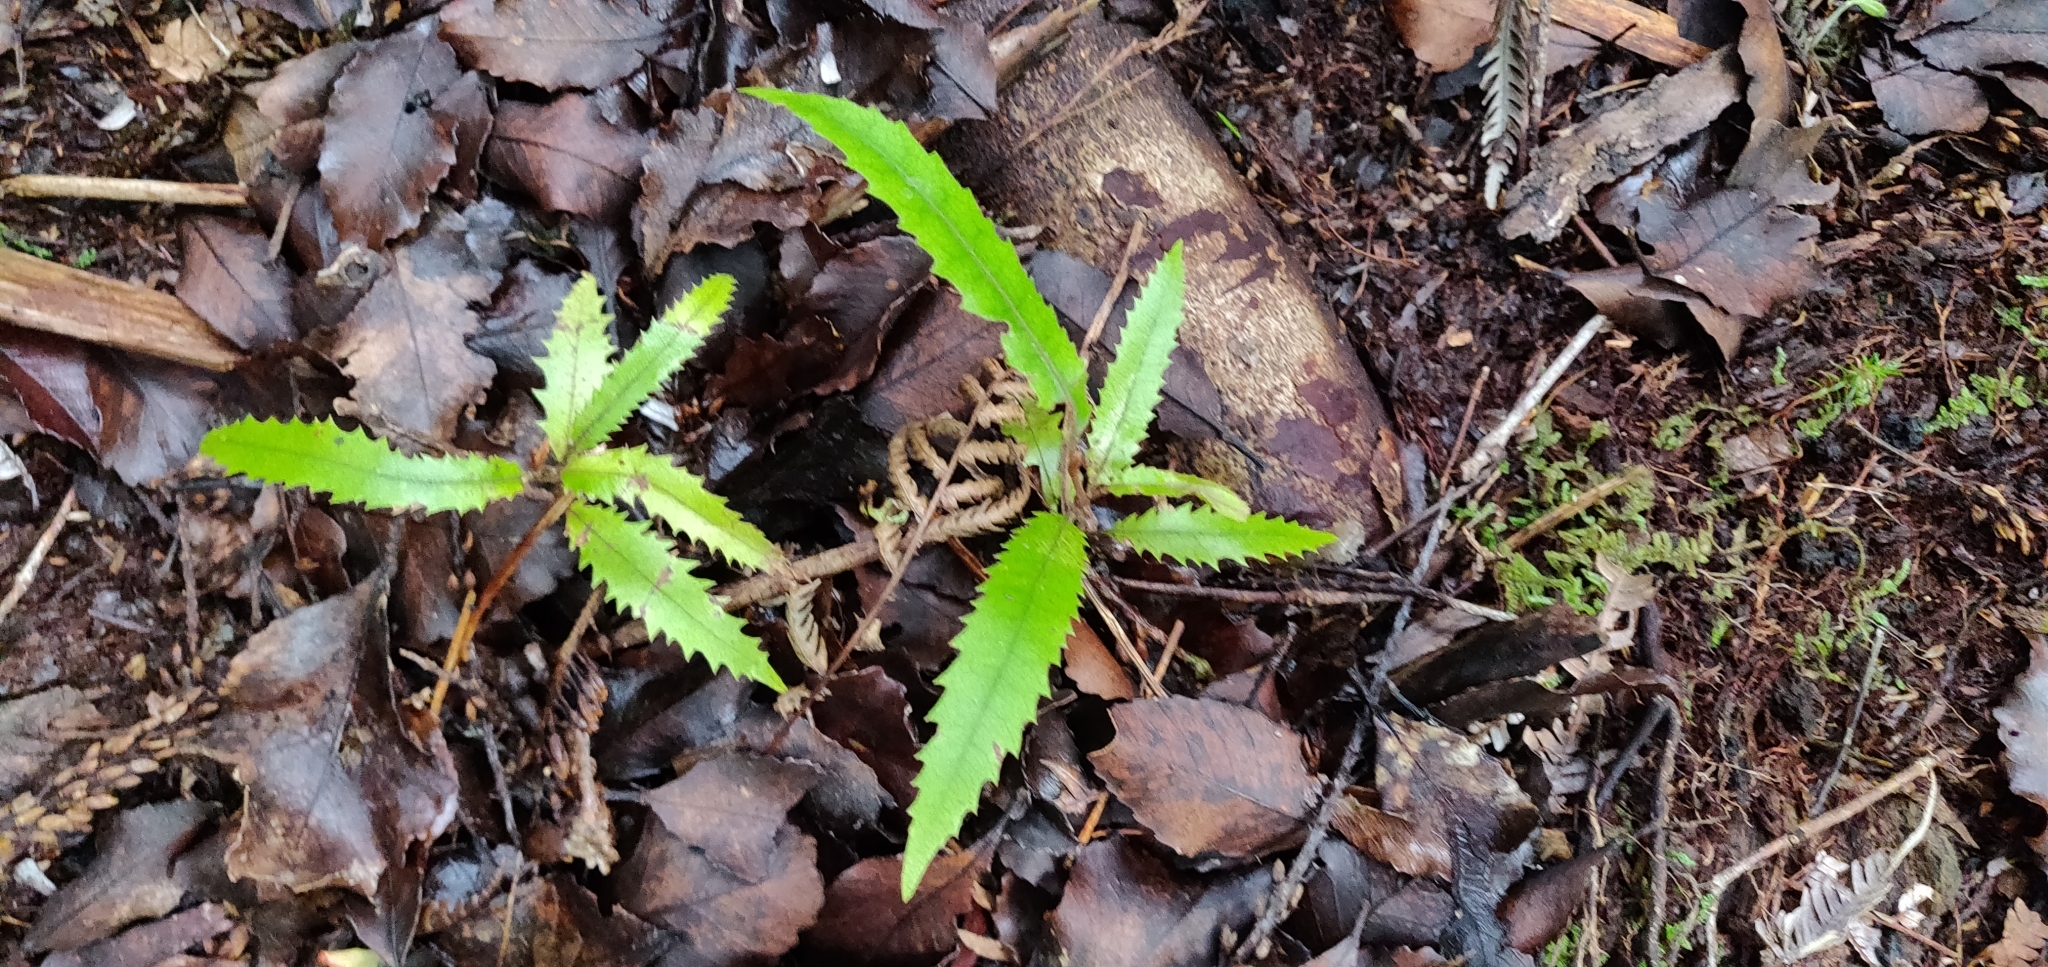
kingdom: Plantae
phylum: Tracheophyta
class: Magnoliopsida
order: Proteales
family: Proteaceae
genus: Knightia
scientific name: Knightia excelsa
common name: New zealand-honeysuckle
